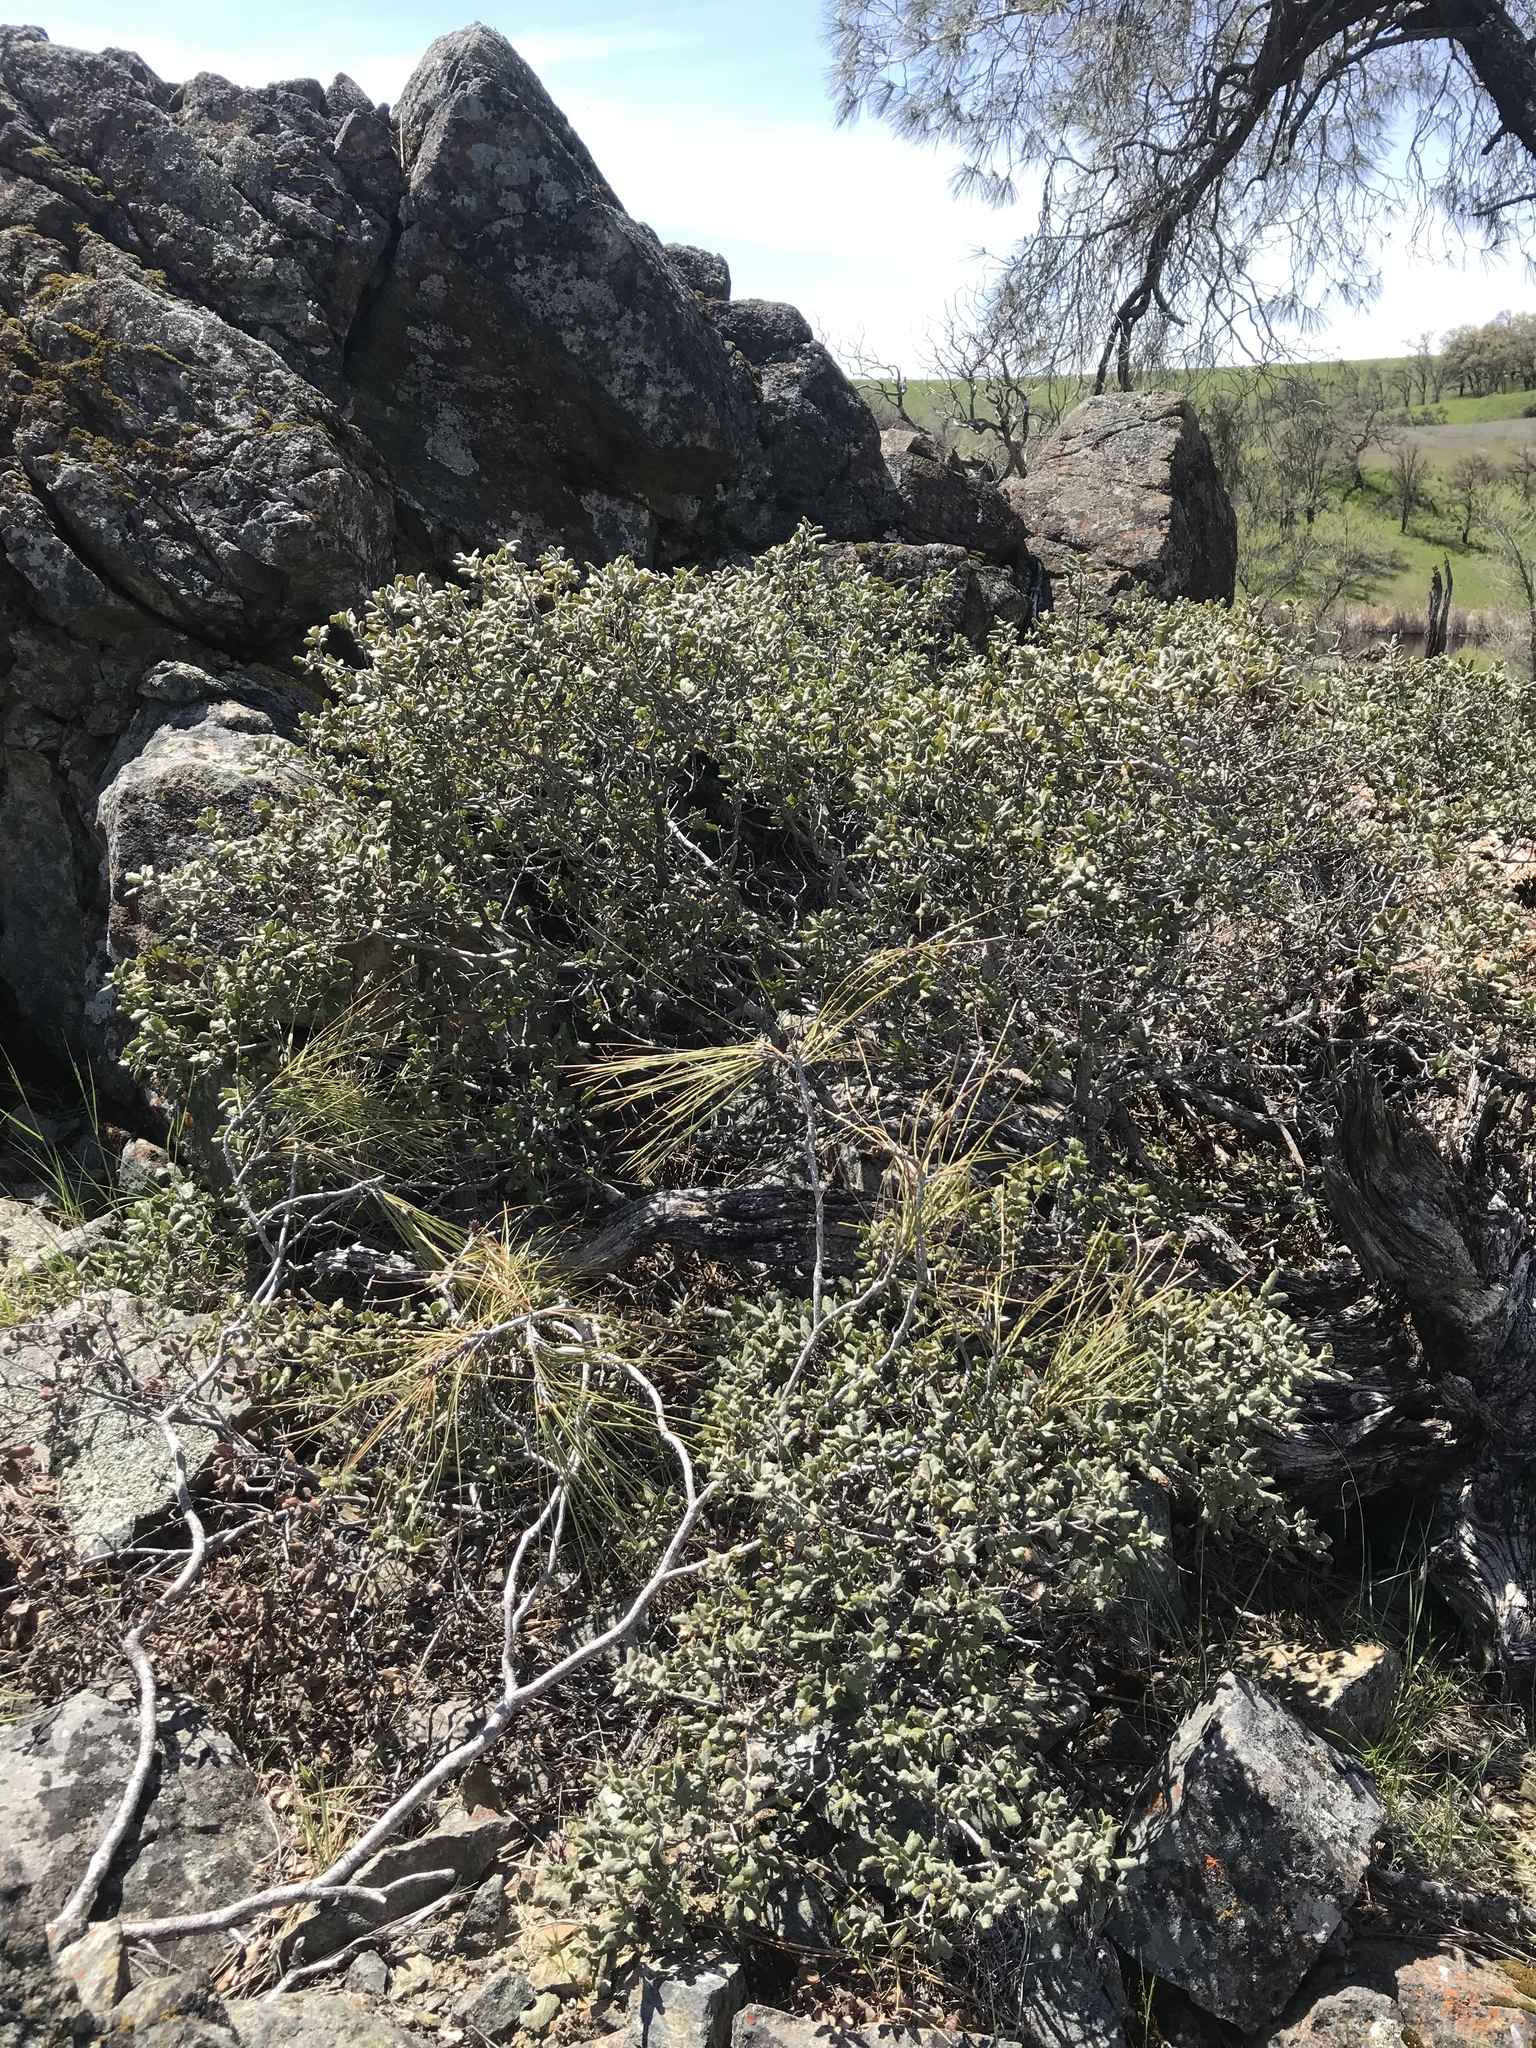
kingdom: Plantae
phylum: Tracheophyta
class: Magnoliopsida
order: Fagales
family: Fagaceae
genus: Quercus
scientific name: Quercus durata
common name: Leather oak
